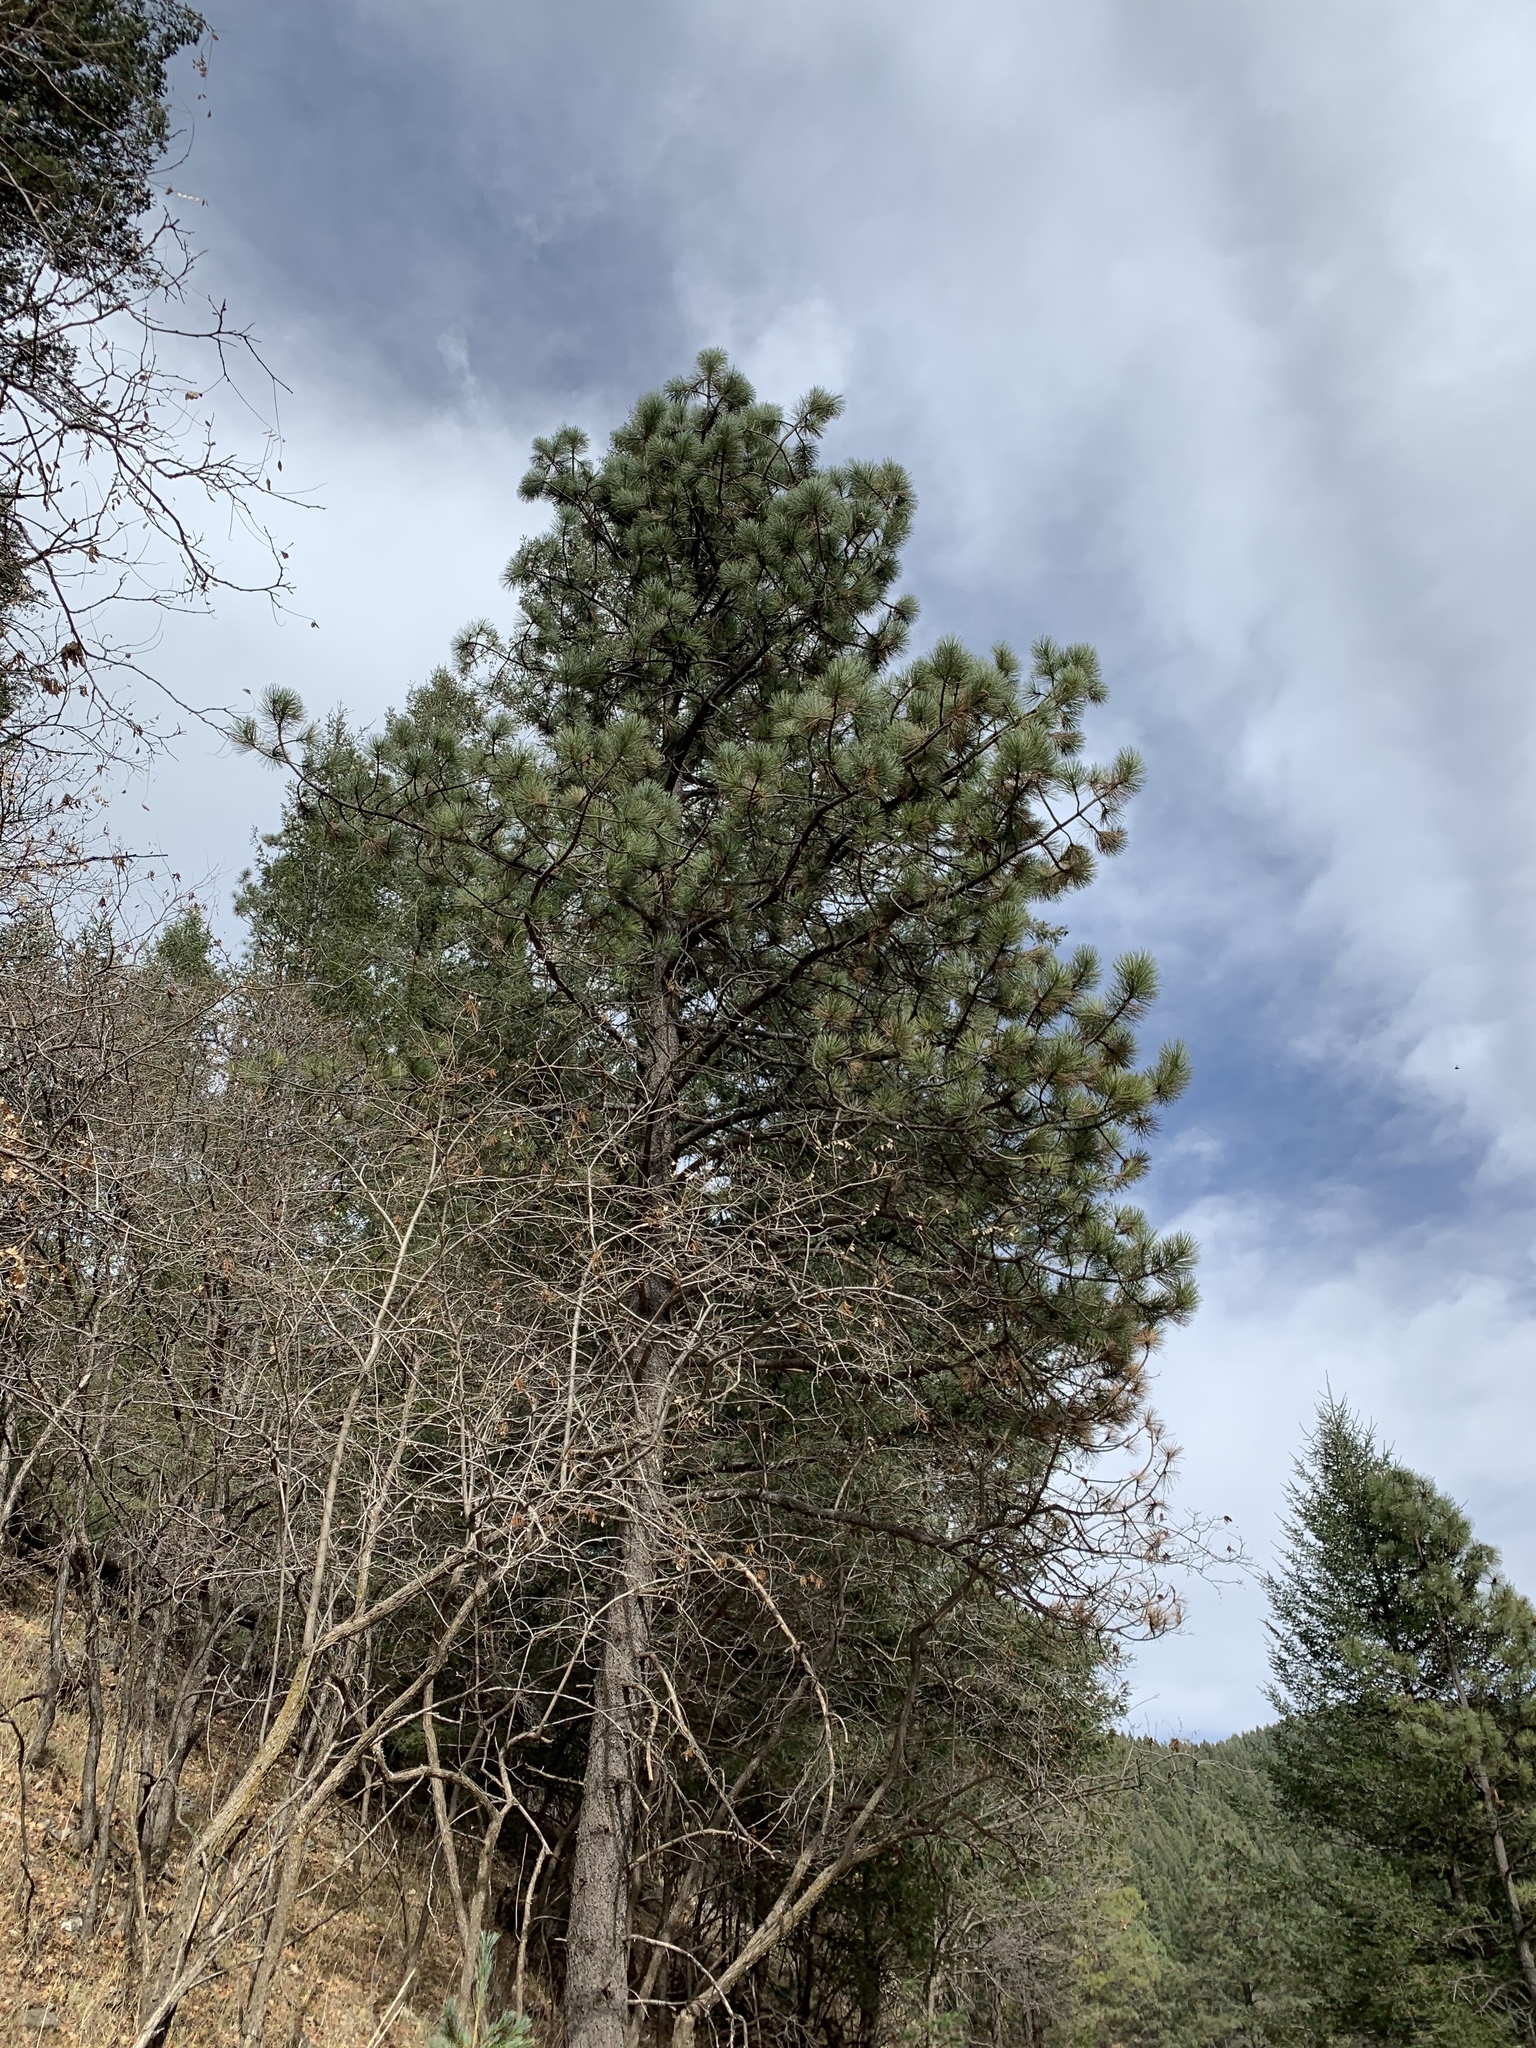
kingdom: Plantae
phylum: Tracheophyta
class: Pinopsida
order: Pinales
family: Pinaceae
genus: Pinus
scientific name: Pinus ponderosa
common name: Western yellow-pine
